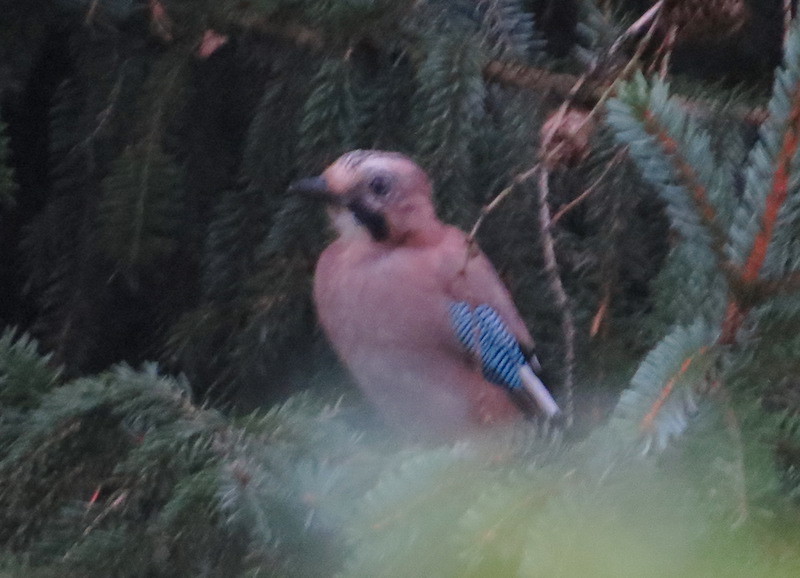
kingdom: Animalia
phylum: Chordata
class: Aves
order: Passeriformes
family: Corvidae
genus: Garrulus
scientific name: Garrulus glandarius
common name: Eurasian jay
